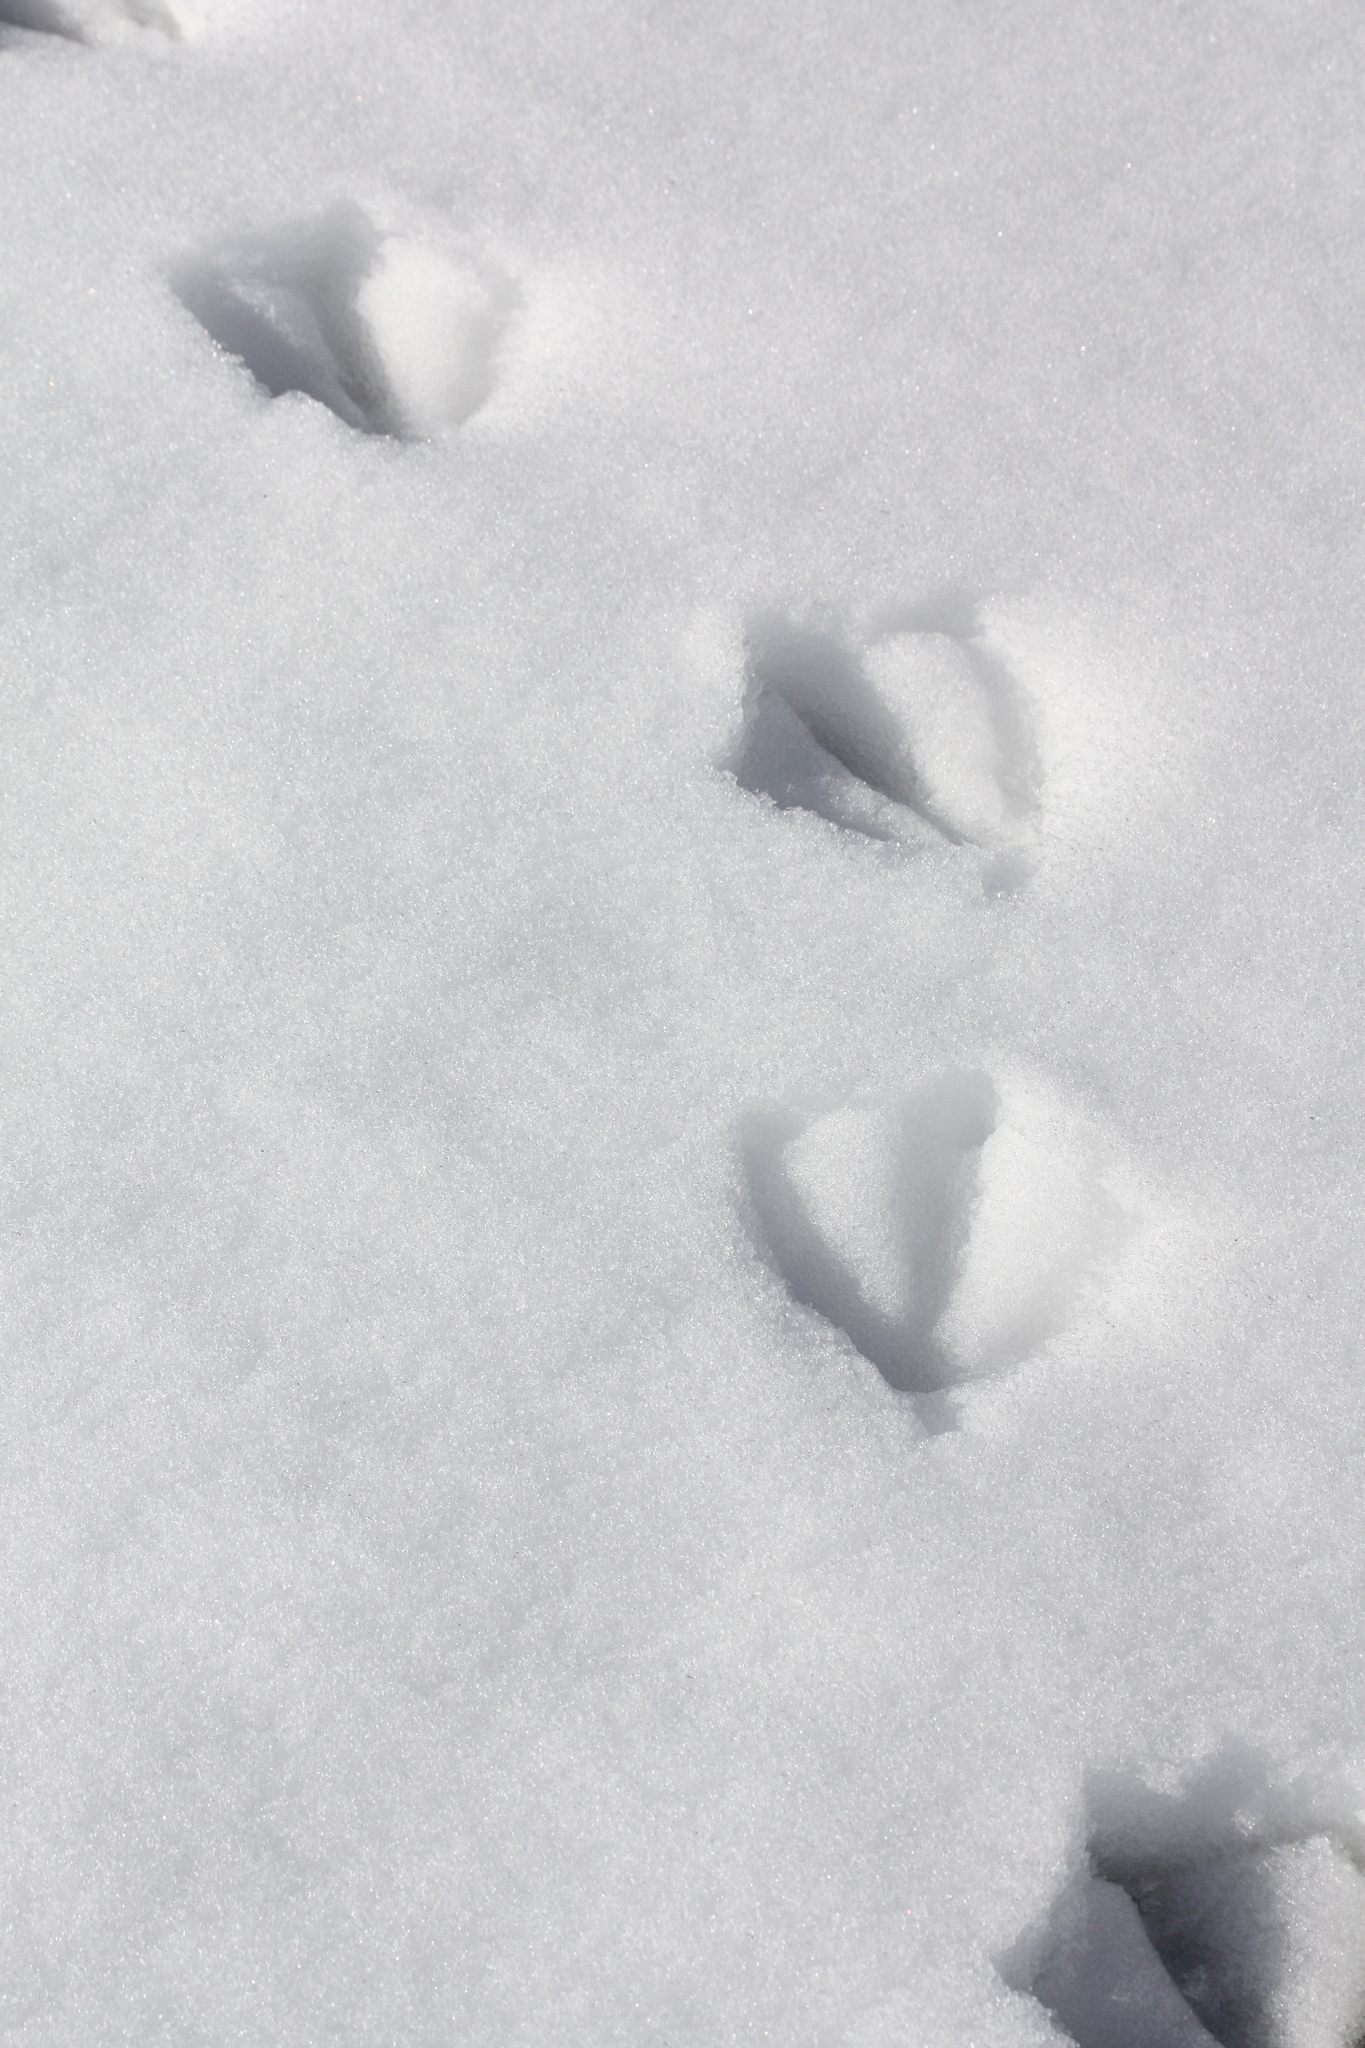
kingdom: Animalia
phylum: Chordata
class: Aves
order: Anseriformes
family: Anatidae
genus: Branta
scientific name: Branta canadensis
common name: Canada goose
